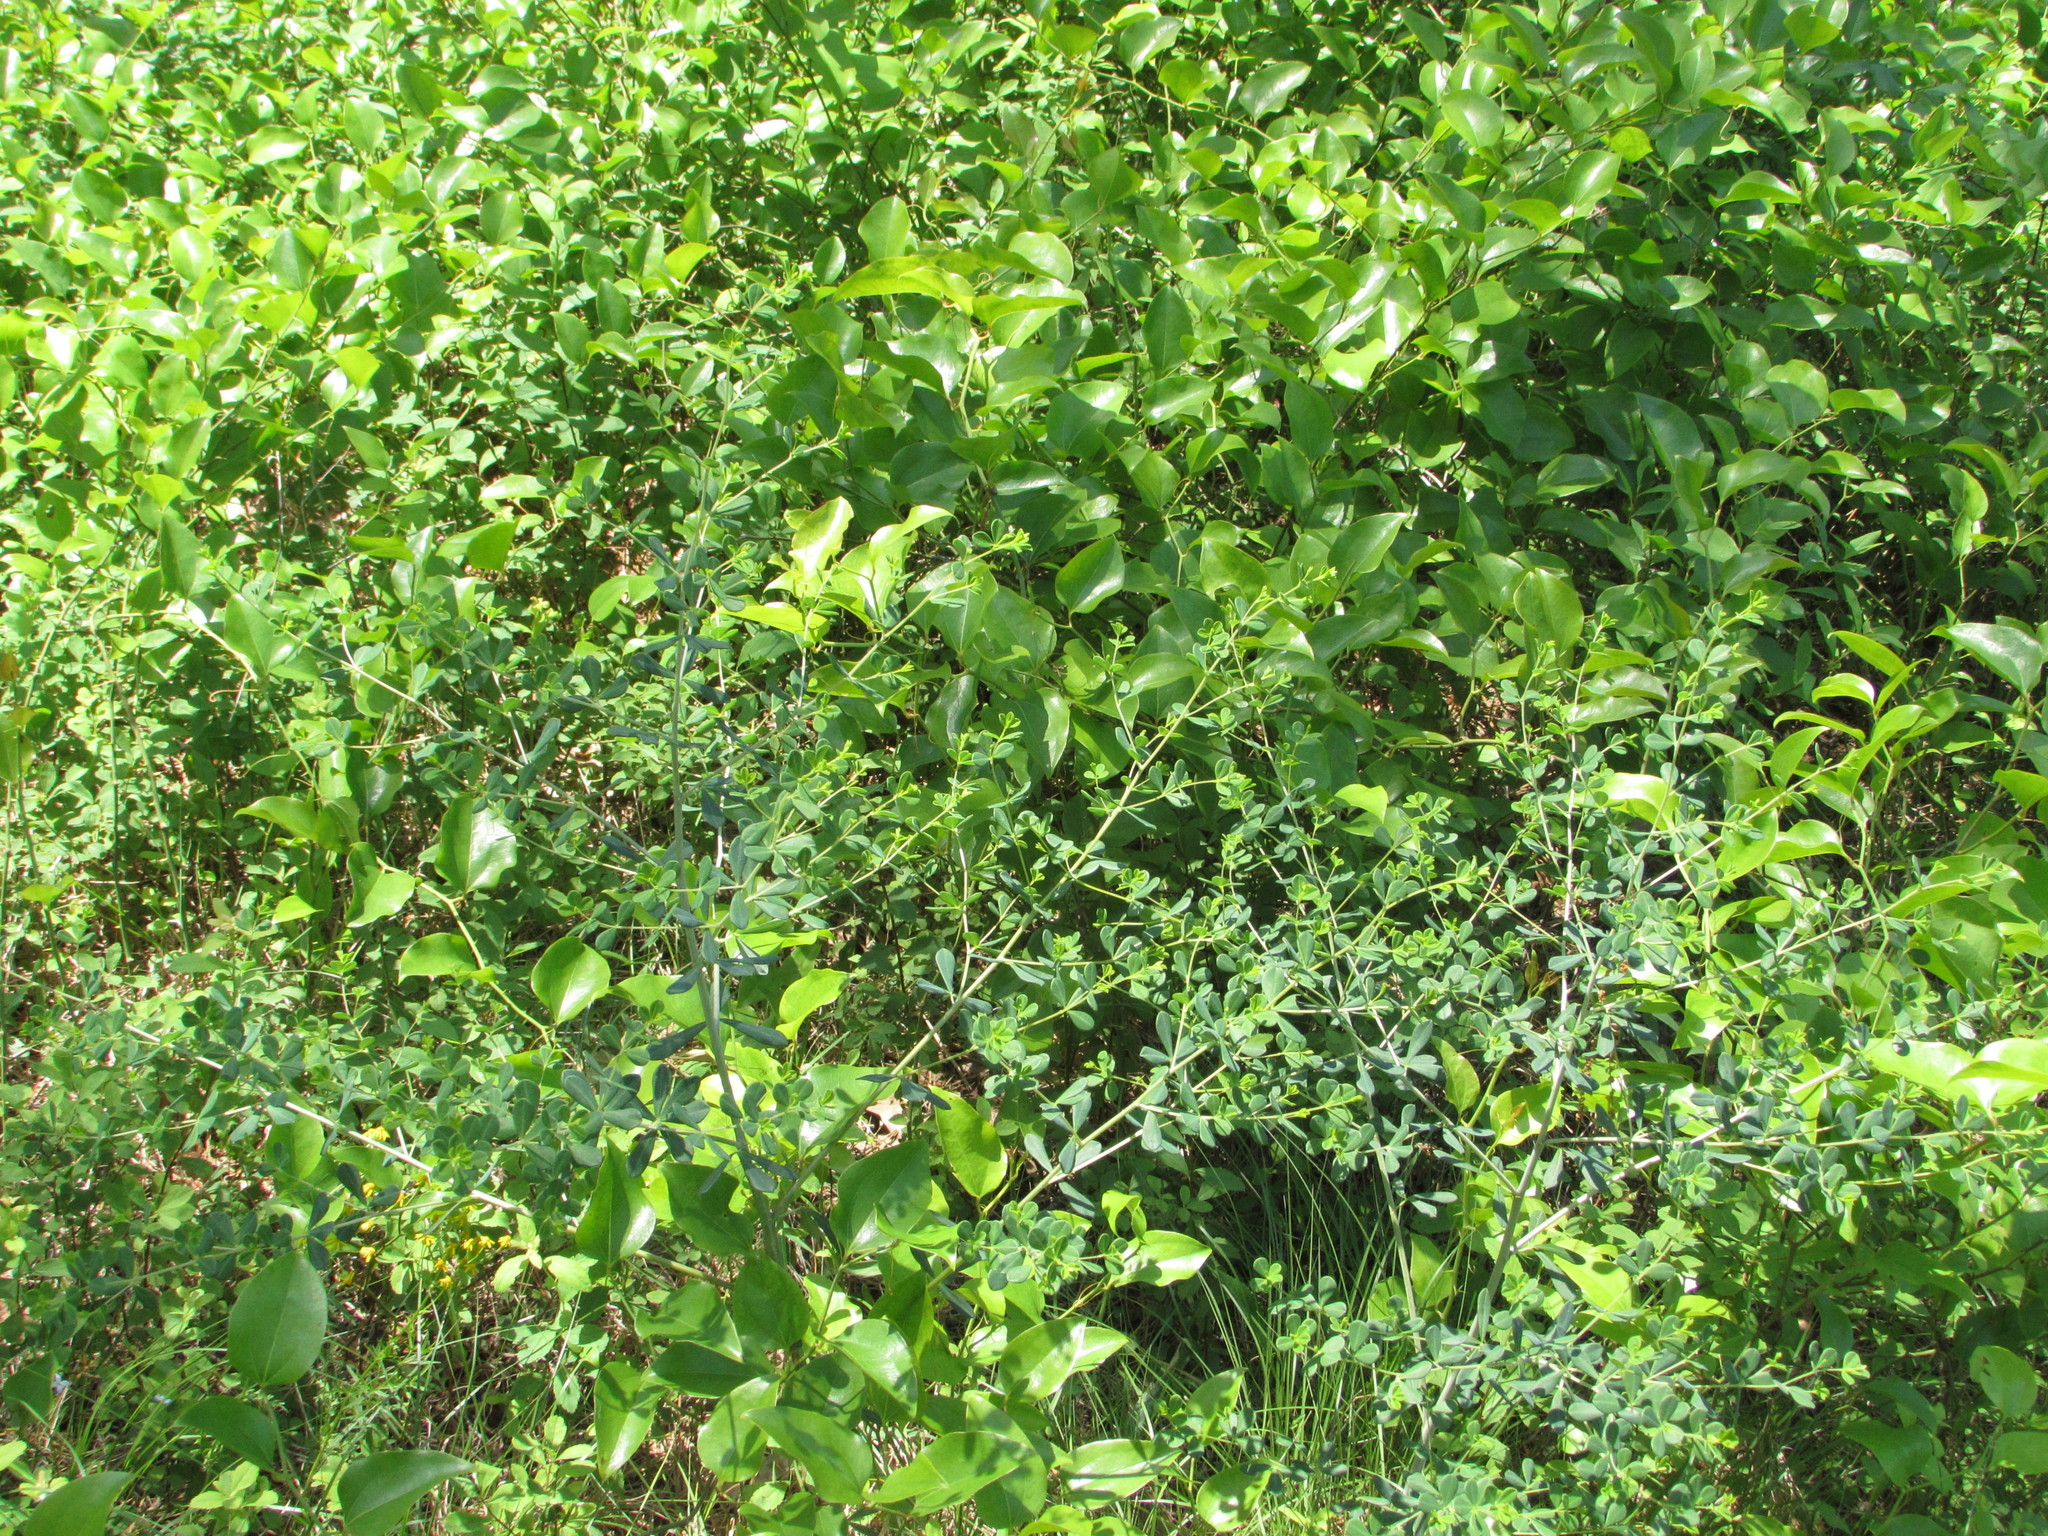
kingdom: Plantae
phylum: Tracheophyta
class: Magnoliopsida
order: Fabales
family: Fabaceae
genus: Baptisia
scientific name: Baptisia tinctoria
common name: Wild indigo
